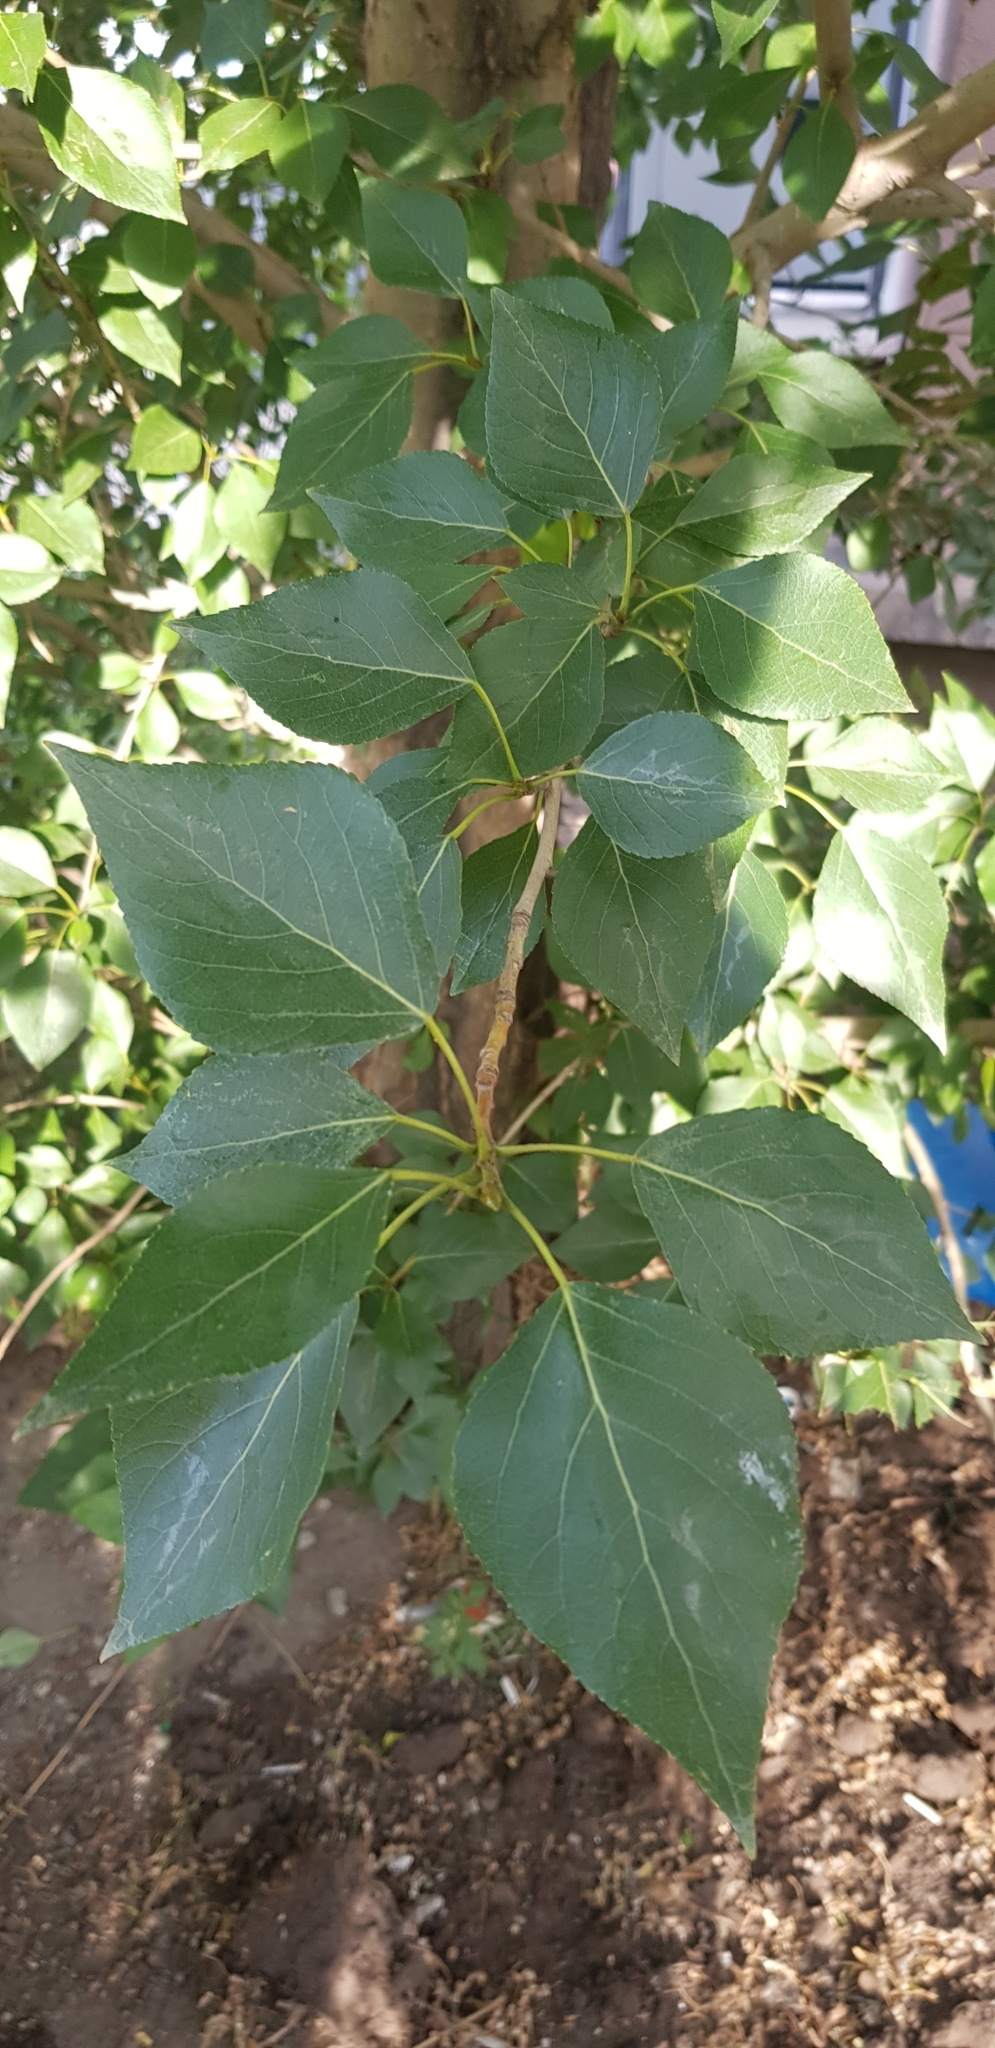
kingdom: Plantae
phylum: Tracheophyta
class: Magnoliopsida
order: Malpighiales
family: Salicaceae
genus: Populus
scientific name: Populus laurifolia
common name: Laurel-leaf poplar
